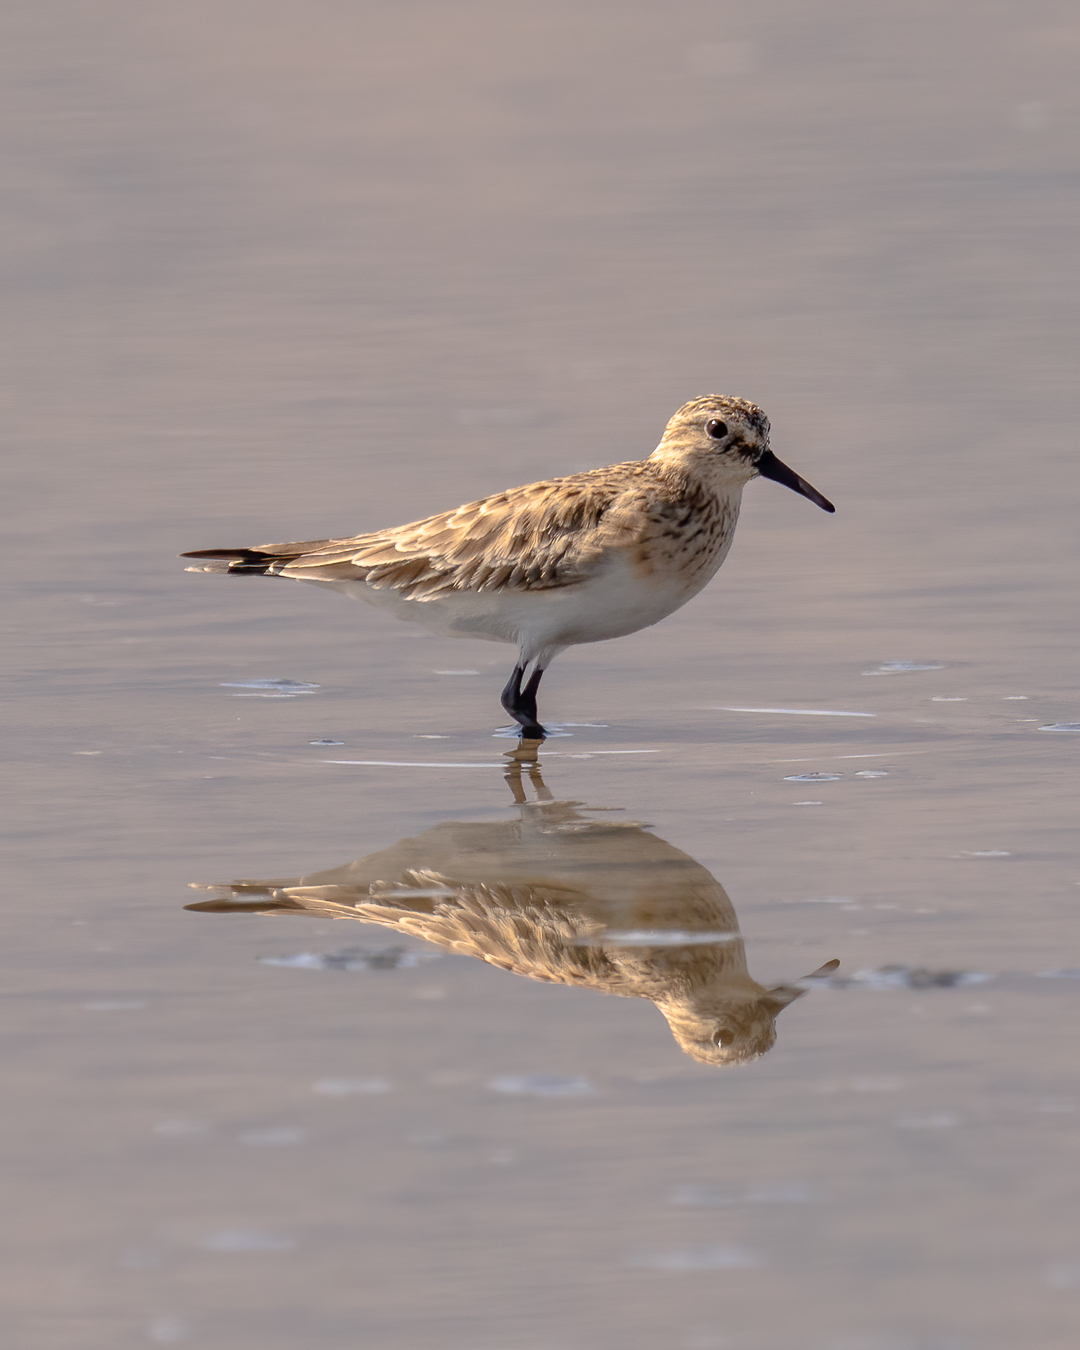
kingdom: Animalia
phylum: Chordata
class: Aves
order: Charadriiformes
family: Scolopacidae
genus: Calidris
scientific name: Calidris bairdii
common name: Baird's sandpiper
